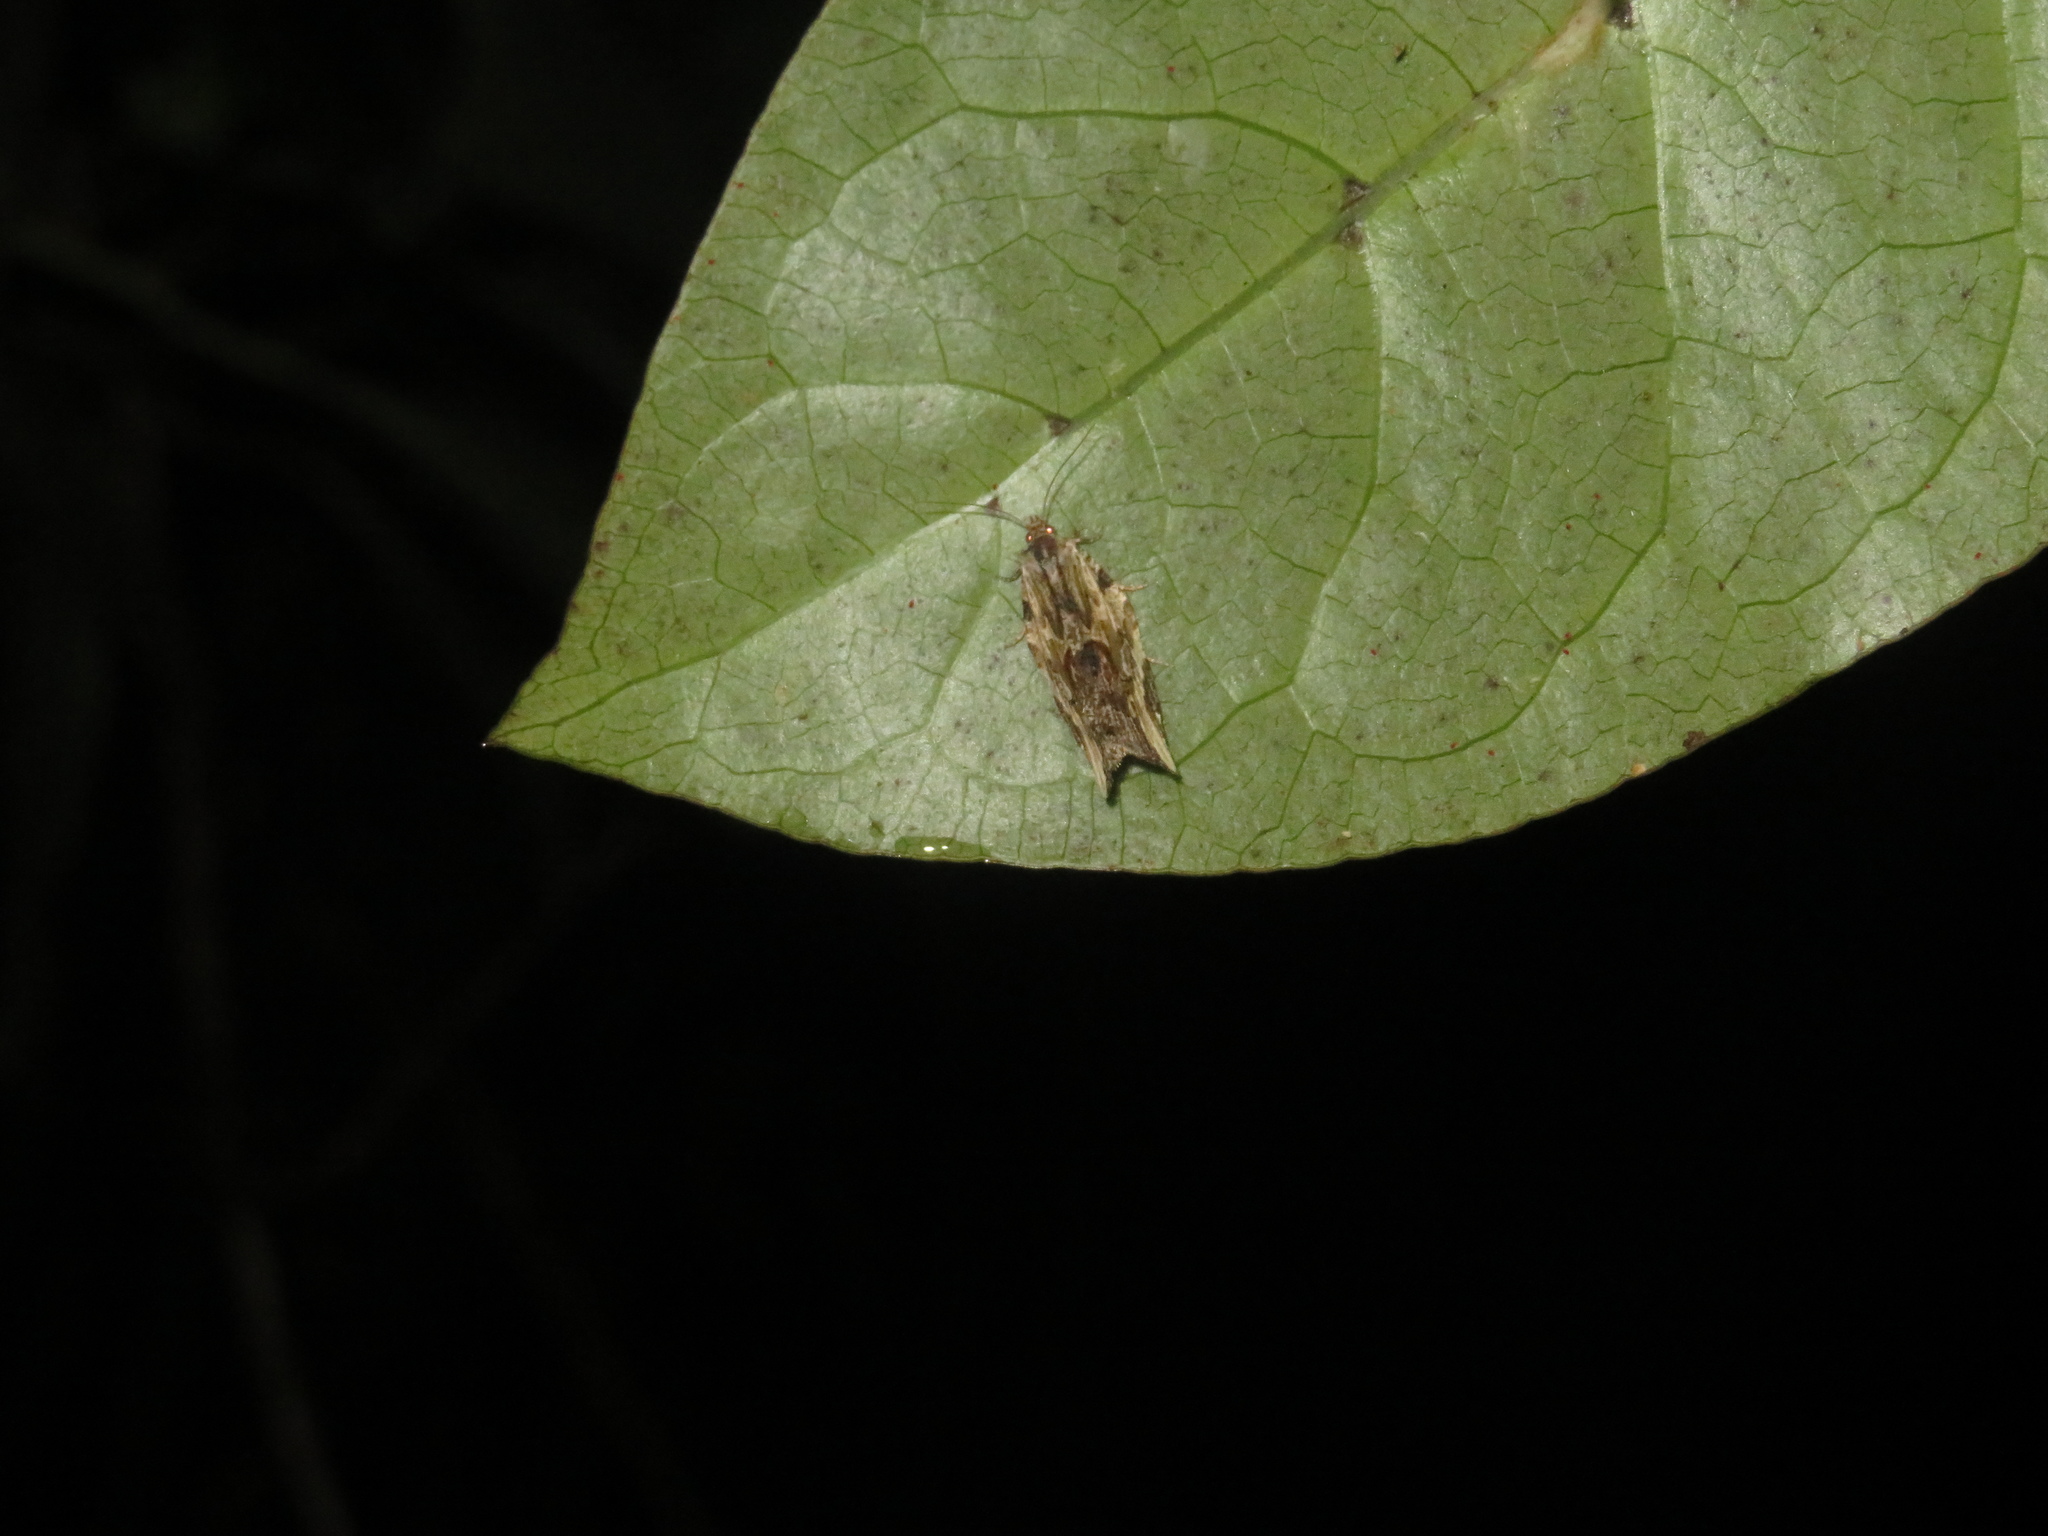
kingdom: Animalia
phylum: Arthropoda
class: Insecta
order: Lepidoptera
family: Tortricidae
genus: Epalxiphora
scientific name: Epalxiphora axenana
